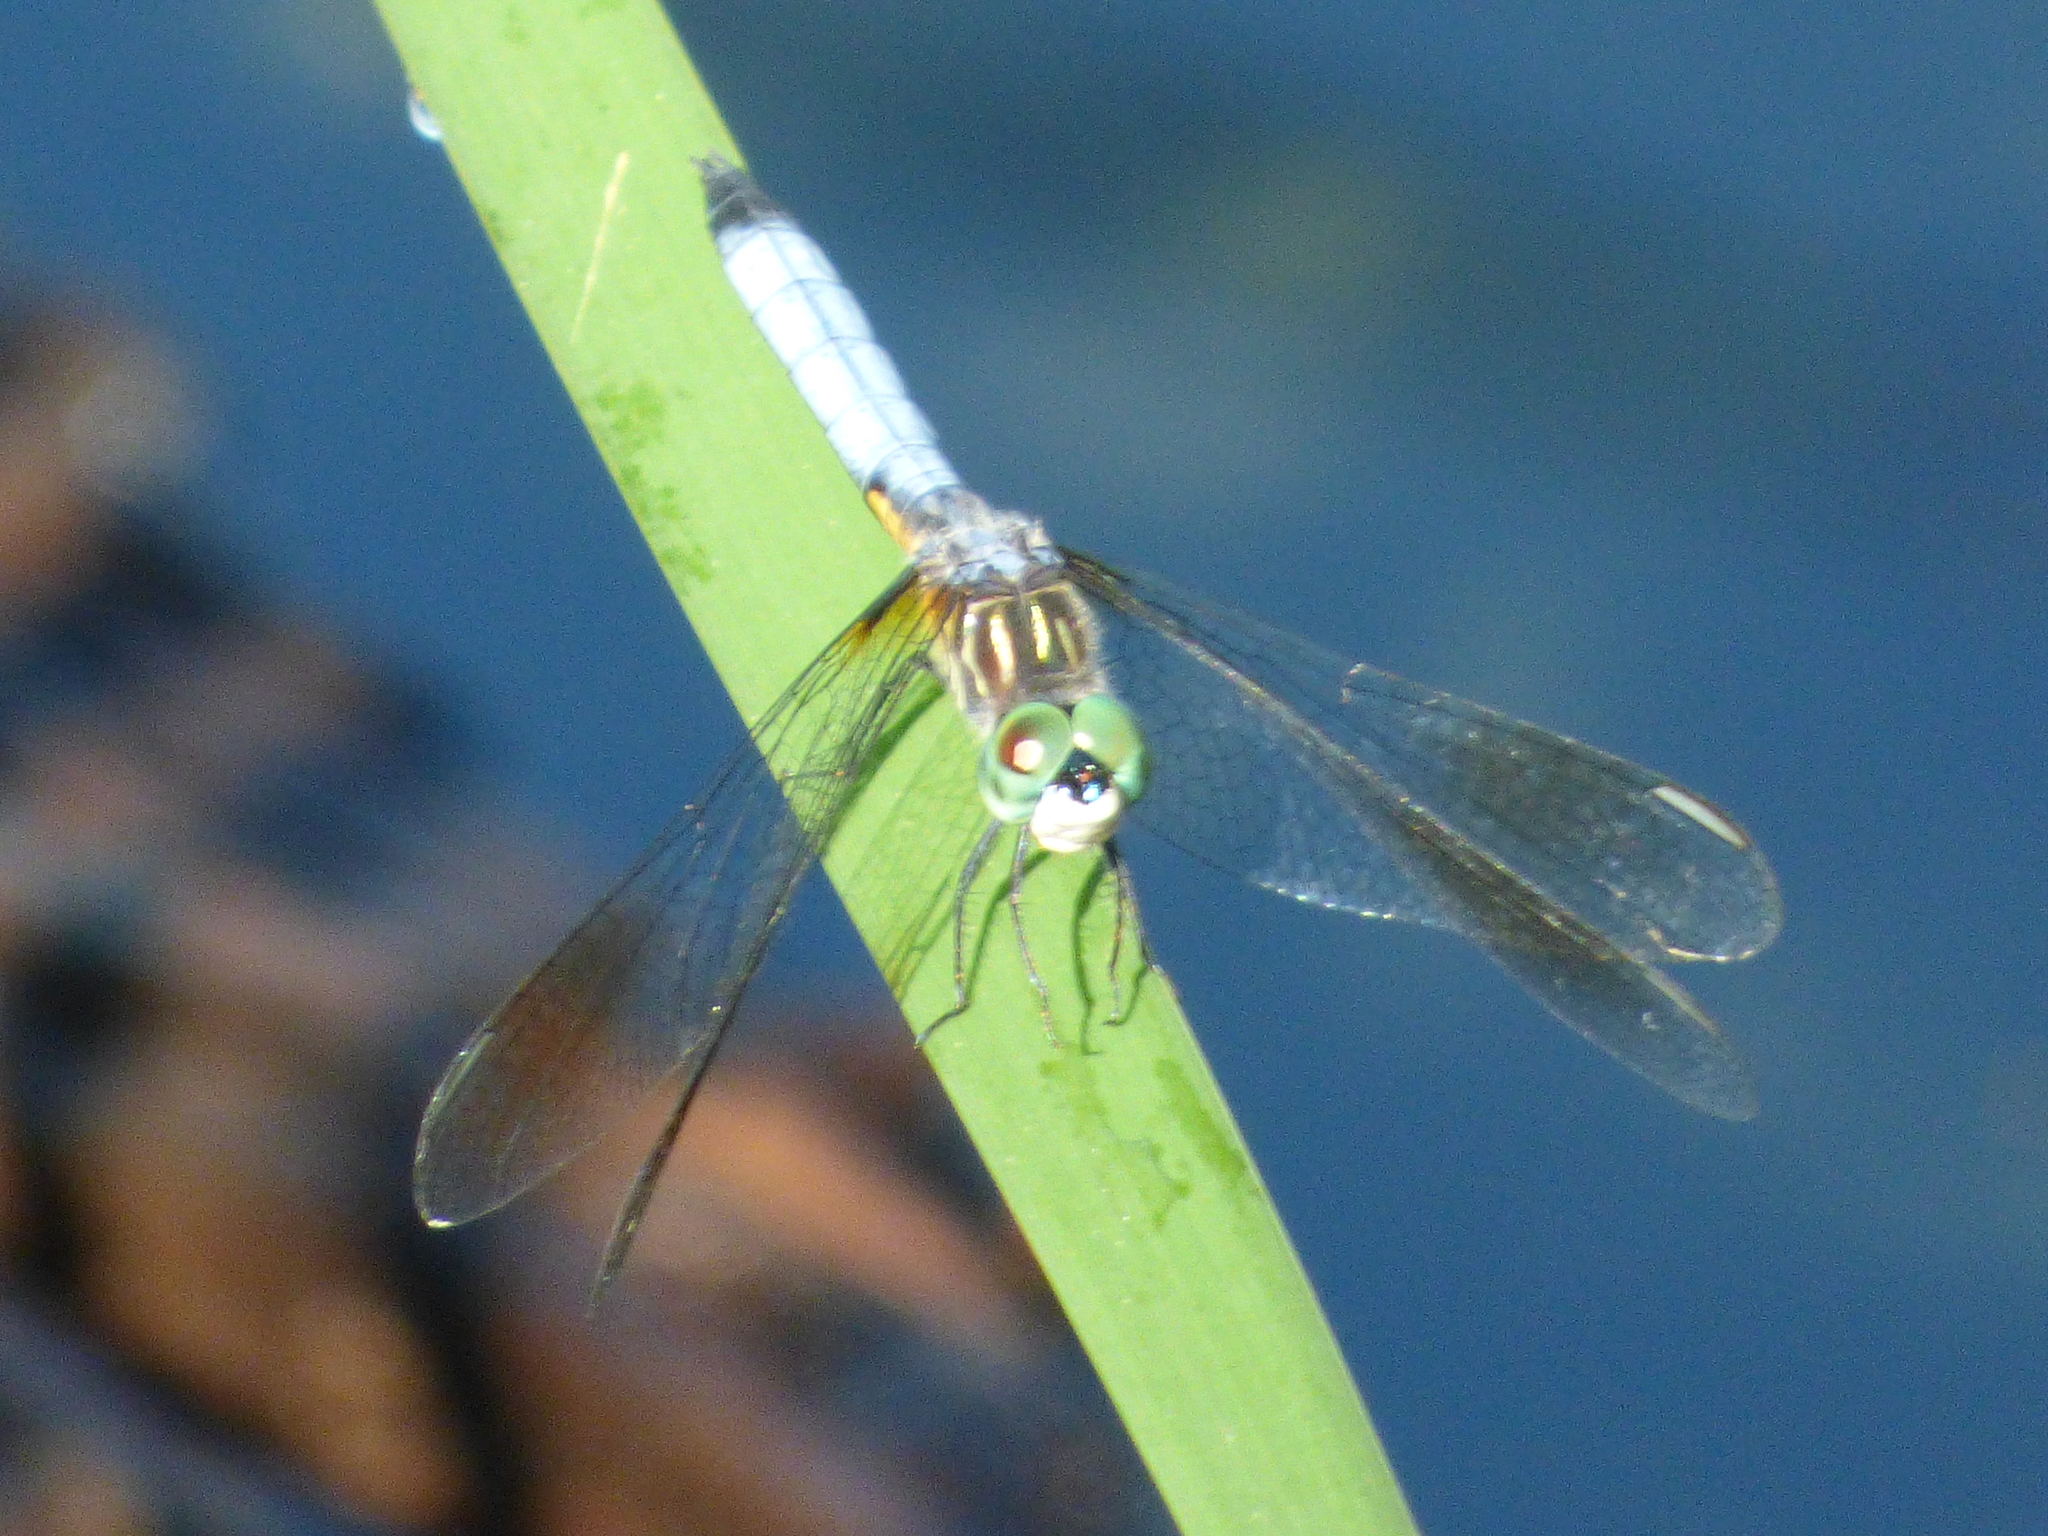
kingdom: Animalia
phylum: Arthropoda
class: Insecta
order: Odonata
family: Libellulidae
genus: Pachydiplax
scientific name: Pachydiplax longipennis
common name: Blue dasher
